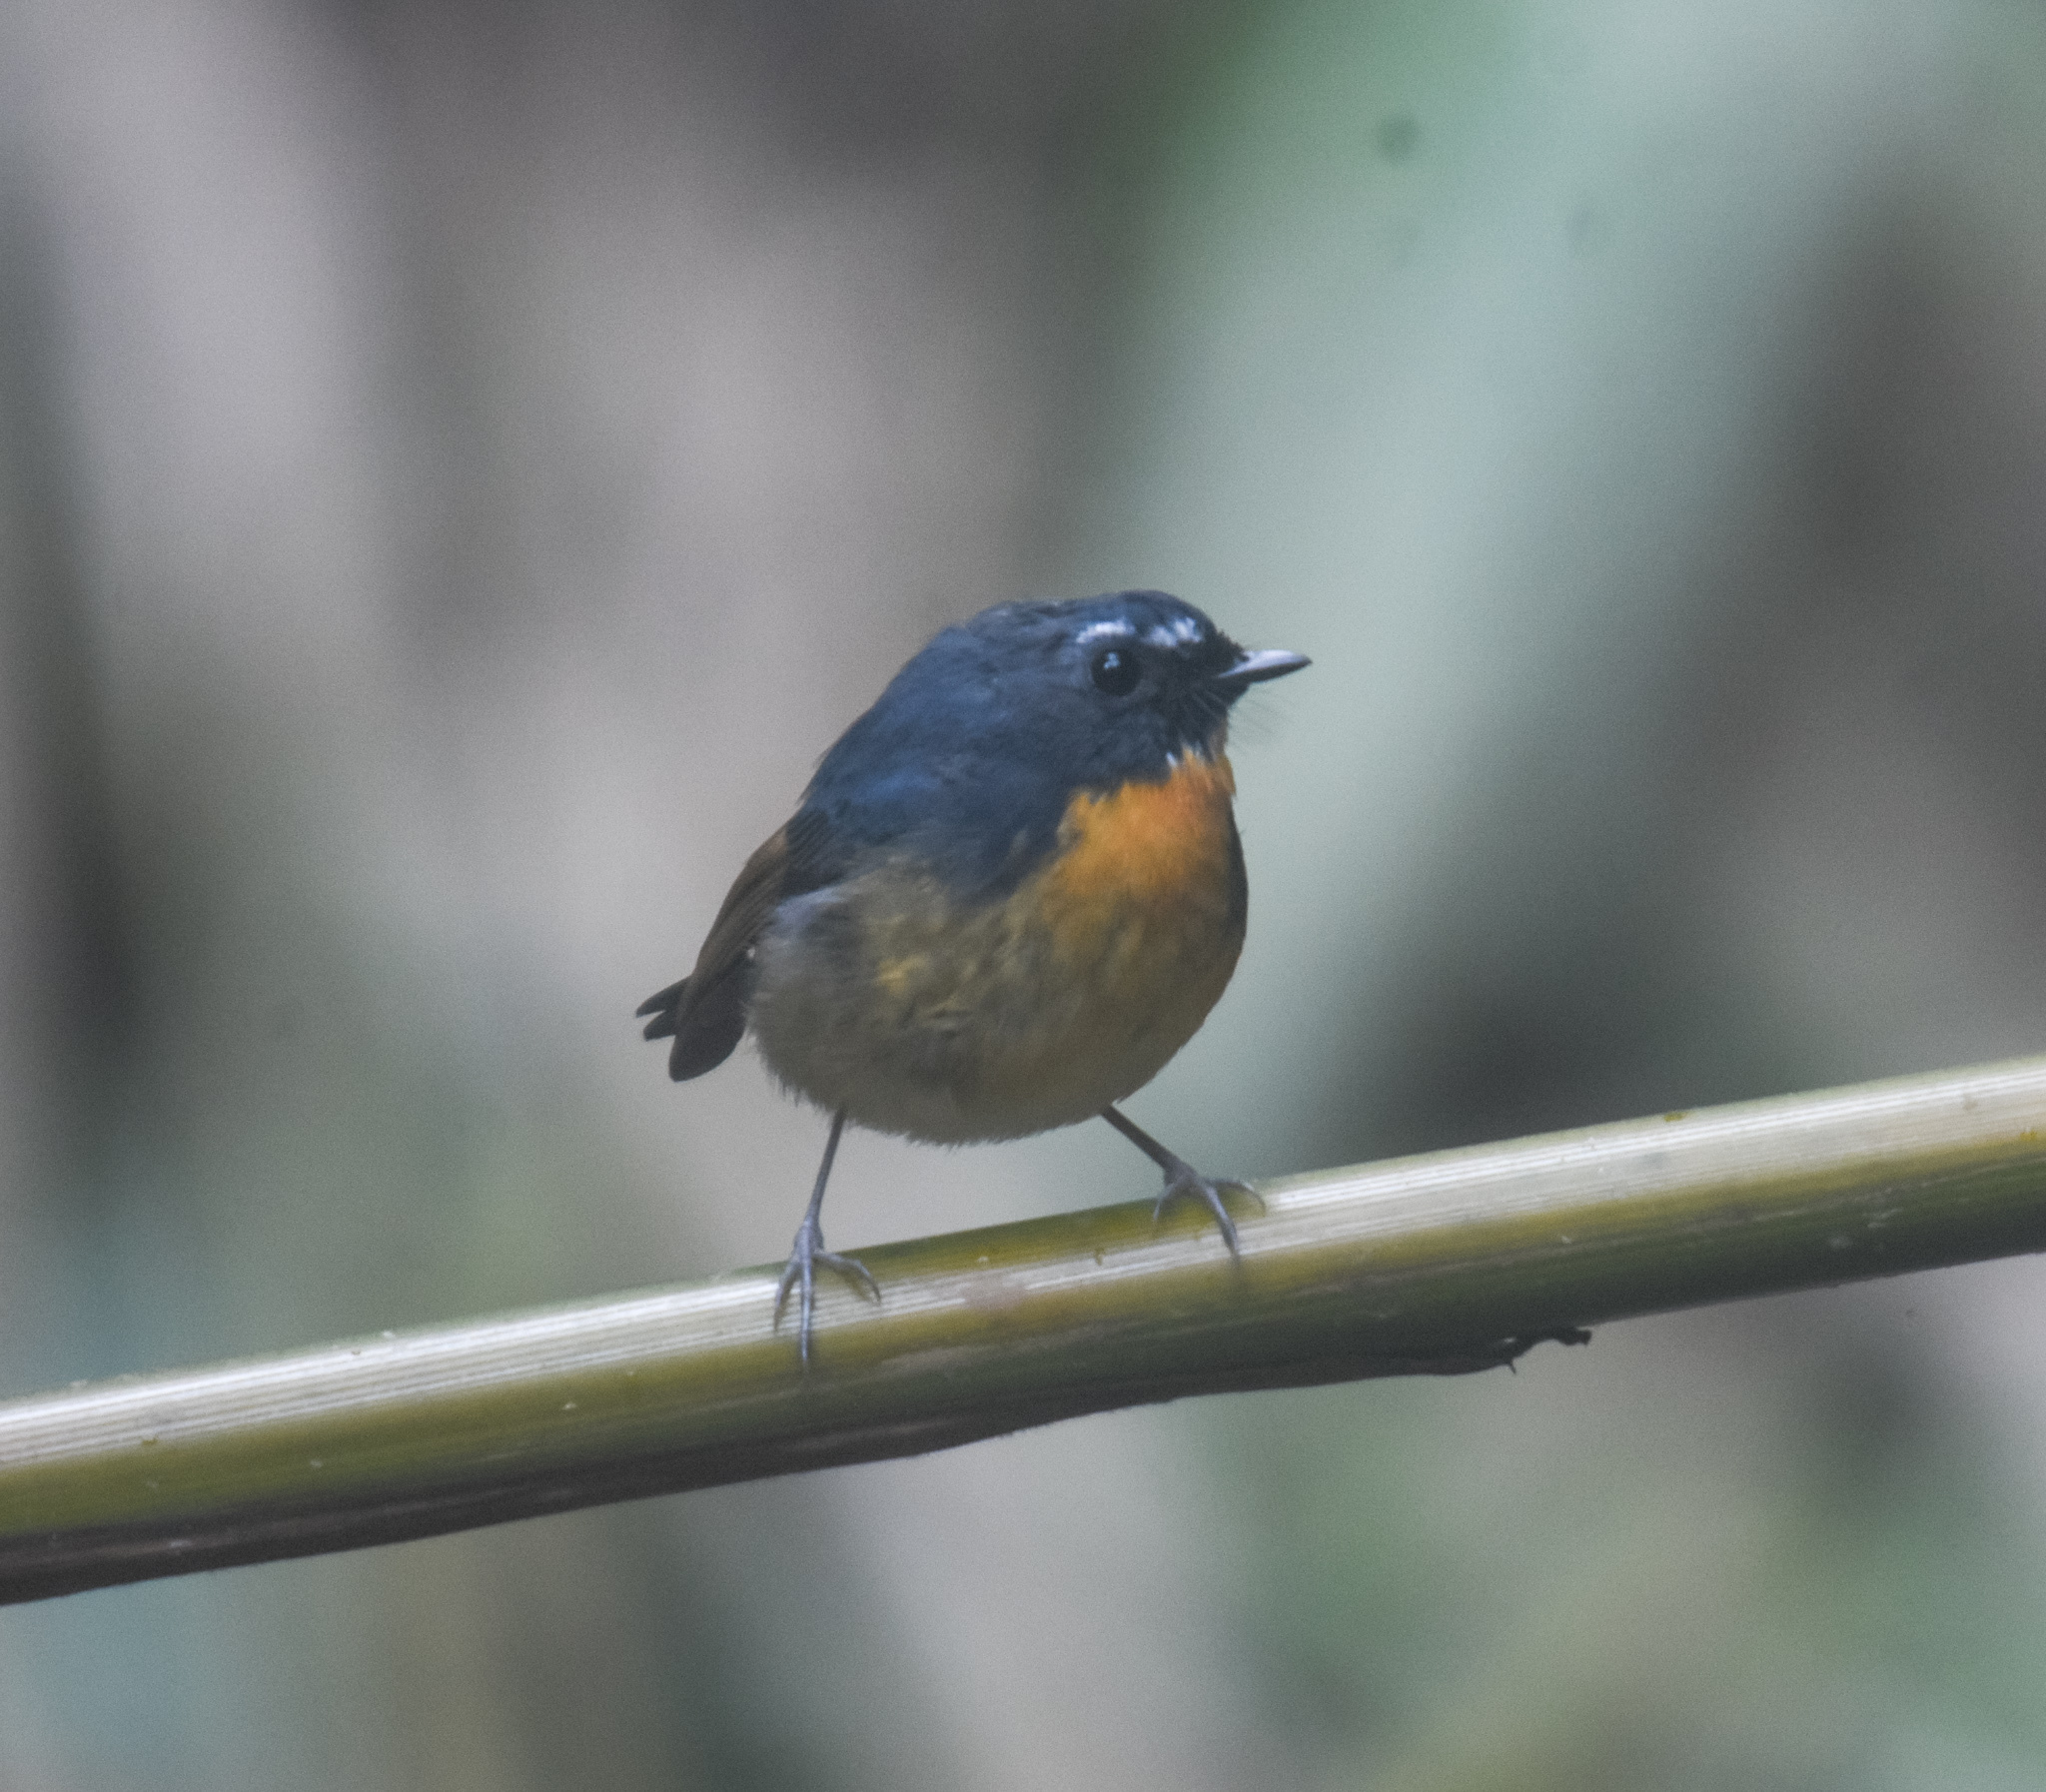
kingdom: Animalia
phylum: Chordata
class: Aves
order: Passeriformes
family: Muscicapidae
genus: Ficedula
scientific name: Ficedula hyperythra
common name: Snowy-browed flycatcher
